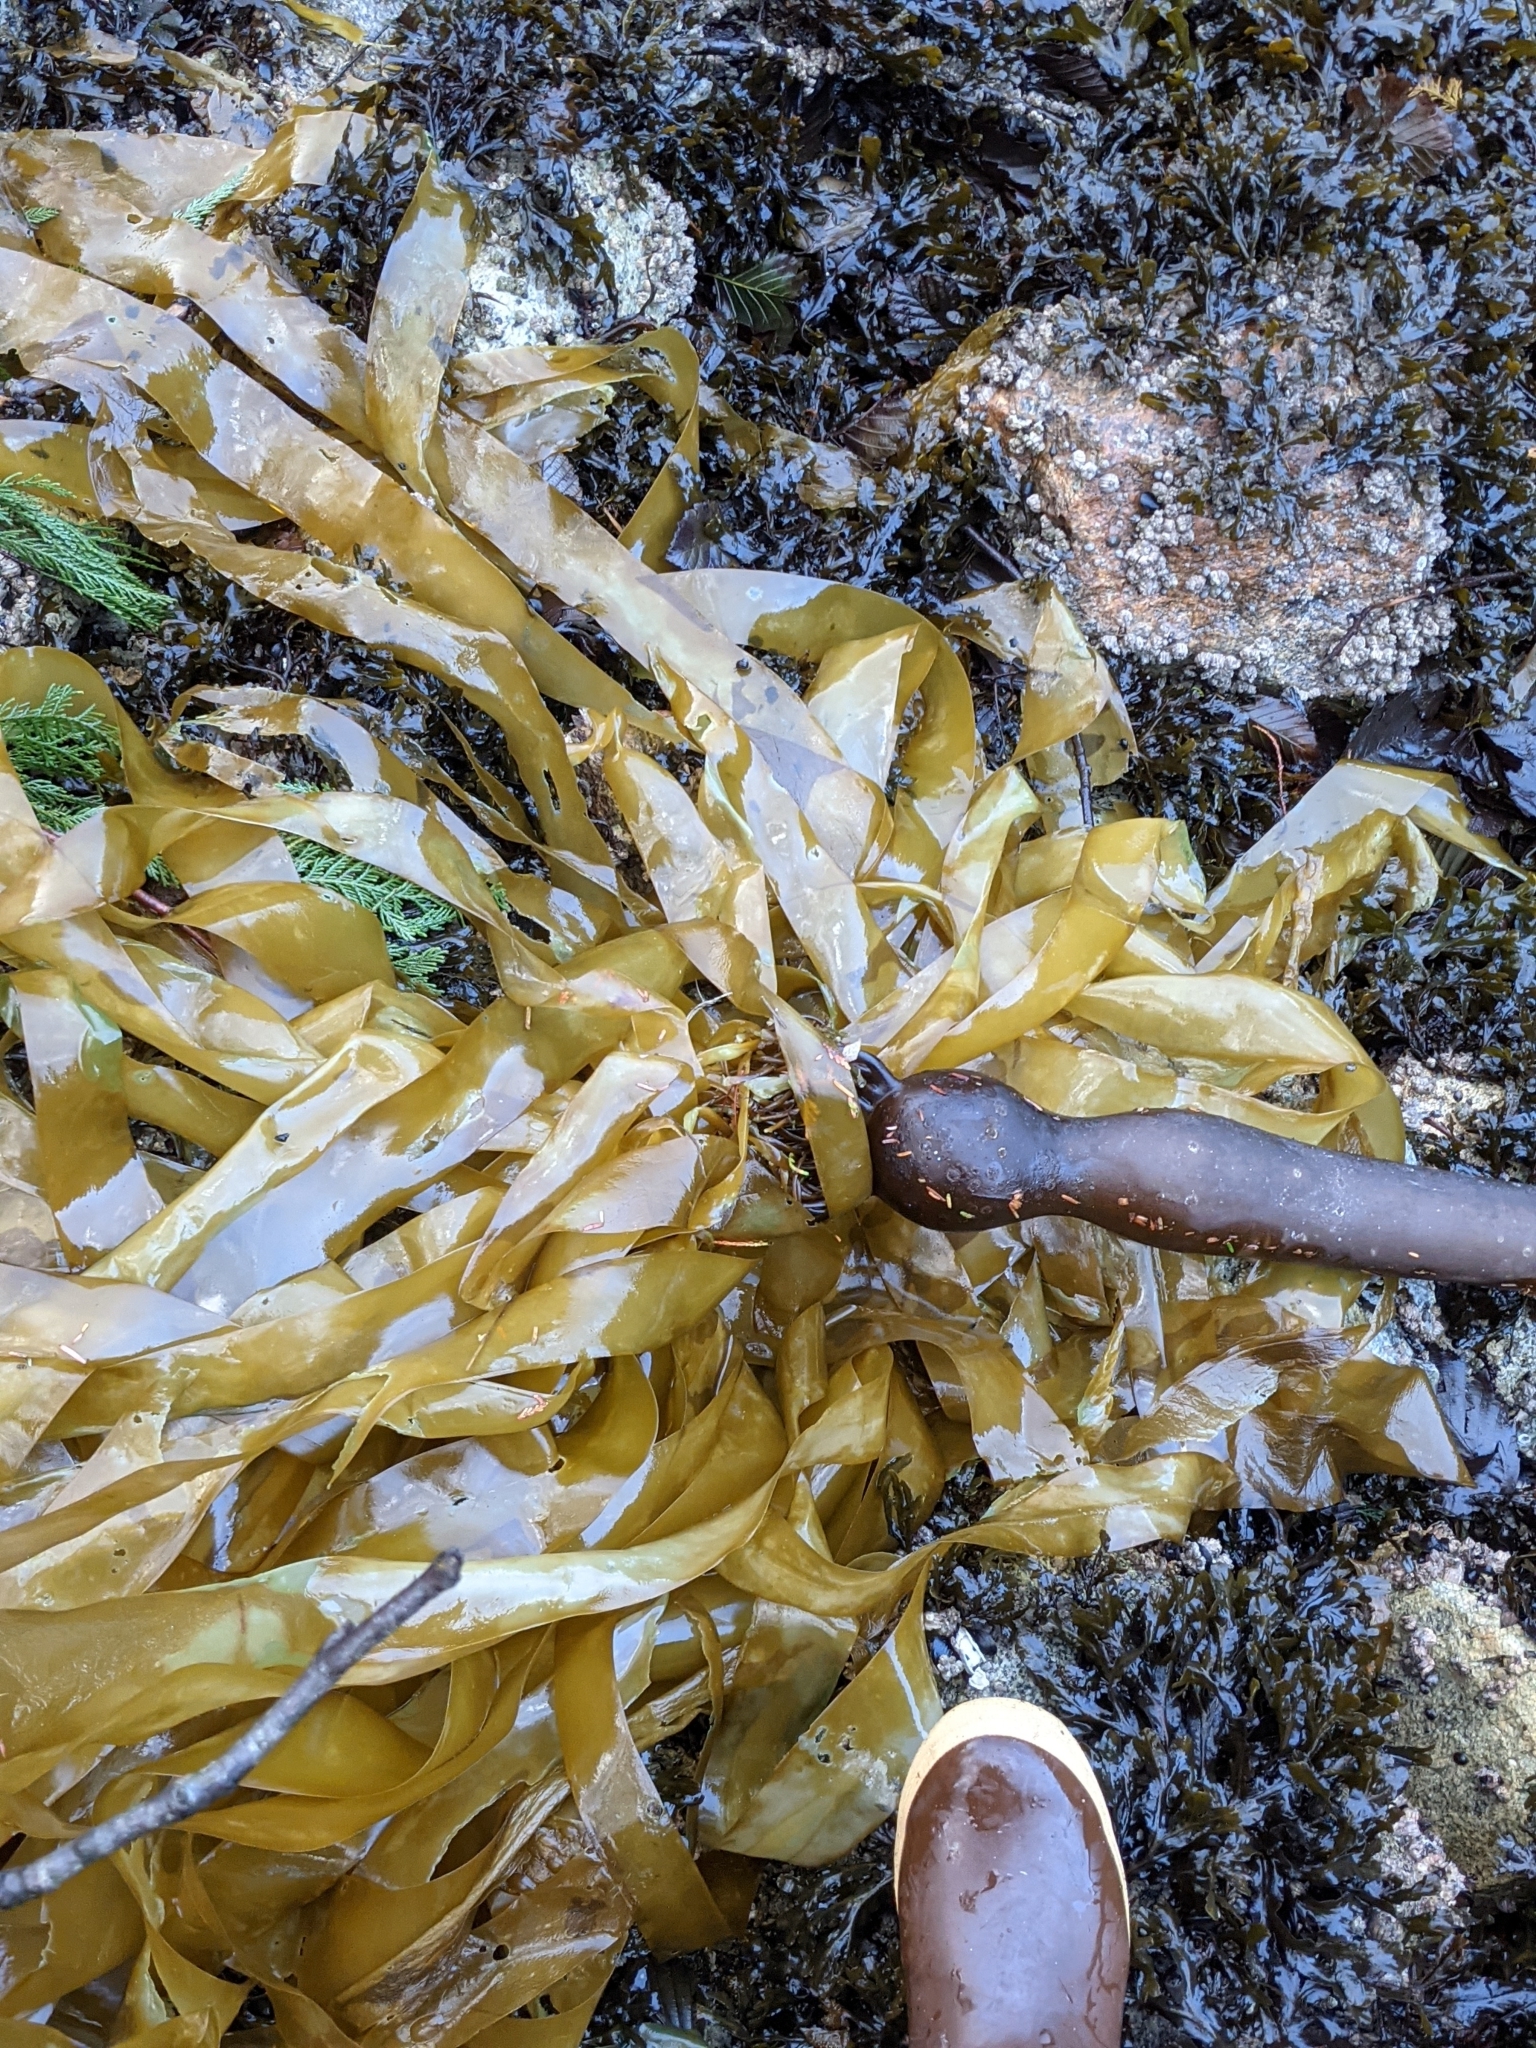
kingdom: Chromista
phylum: Ochrophyta
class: Phaeophyceae
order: Laminariales
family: Laminariaceae
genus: Nereocystis
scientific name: Nereocystis luetkeana
